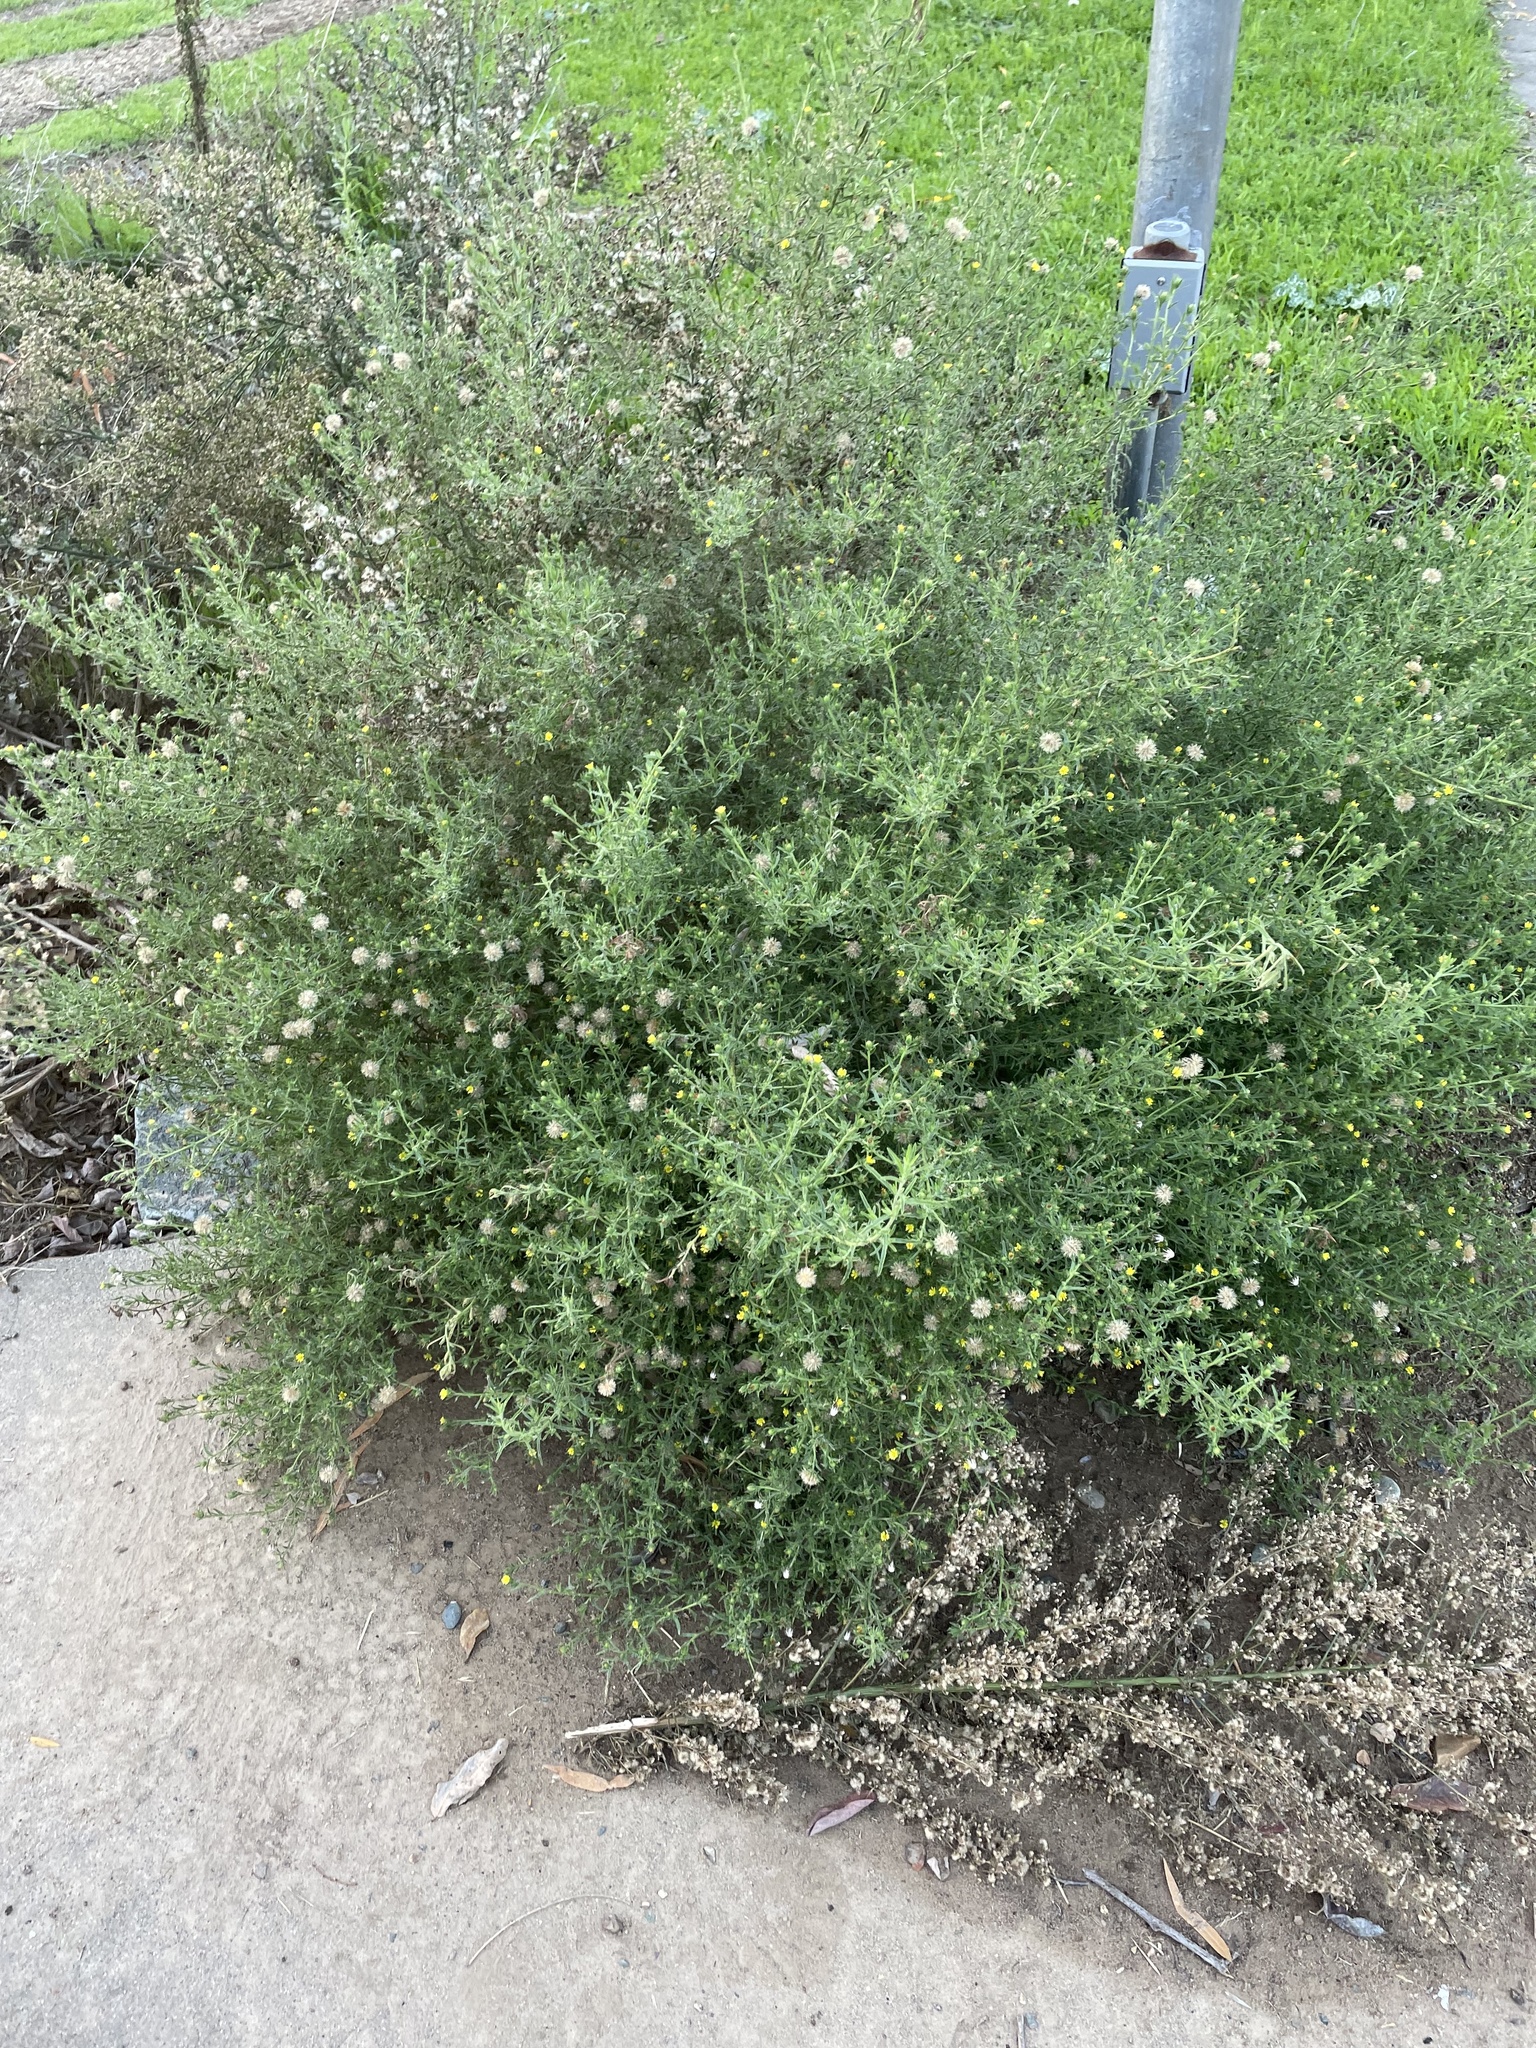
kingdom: Plantae
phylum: Tracheophyta
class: Magnoliopsida
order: Asterales
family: Asteraceae
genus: Dittrichia
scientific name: Dittrichia graveolens
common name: Stinking fleabane
